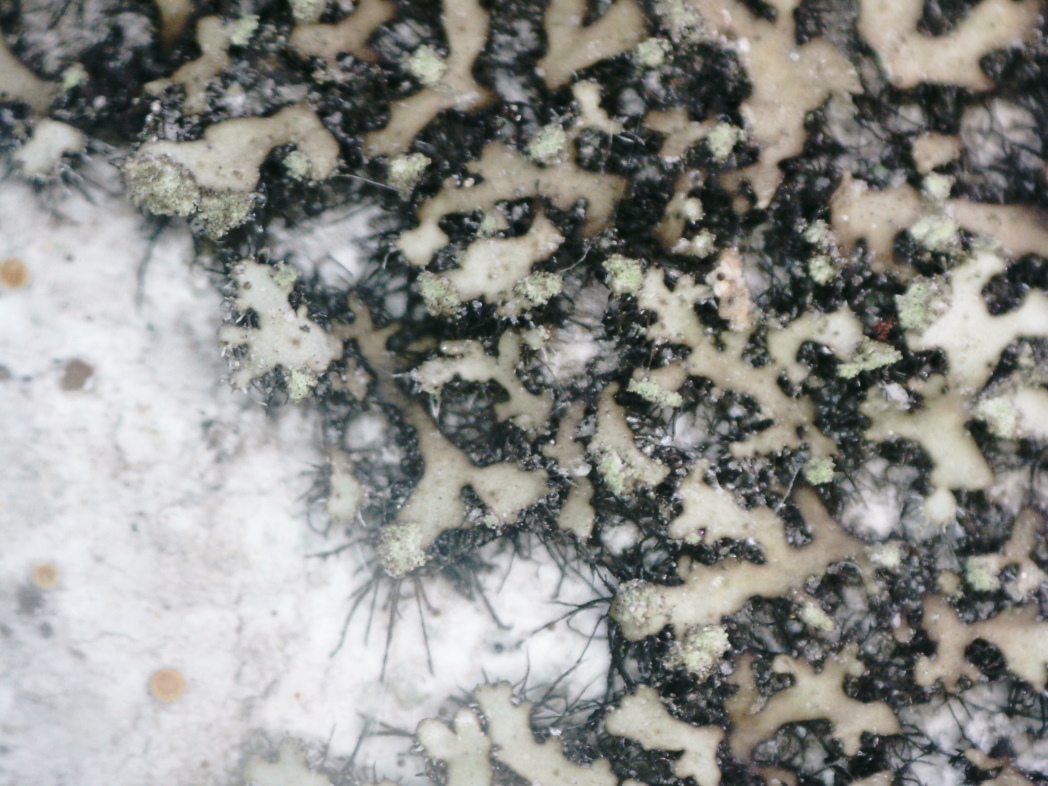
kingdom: Fungi
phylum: Ascomycota
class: Lecanoromycetes
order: Caliciales
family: Physciaceae
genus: Phaeophyscia
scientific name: Phaeophyscia orbicularis
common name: Mealy shadow lichen
